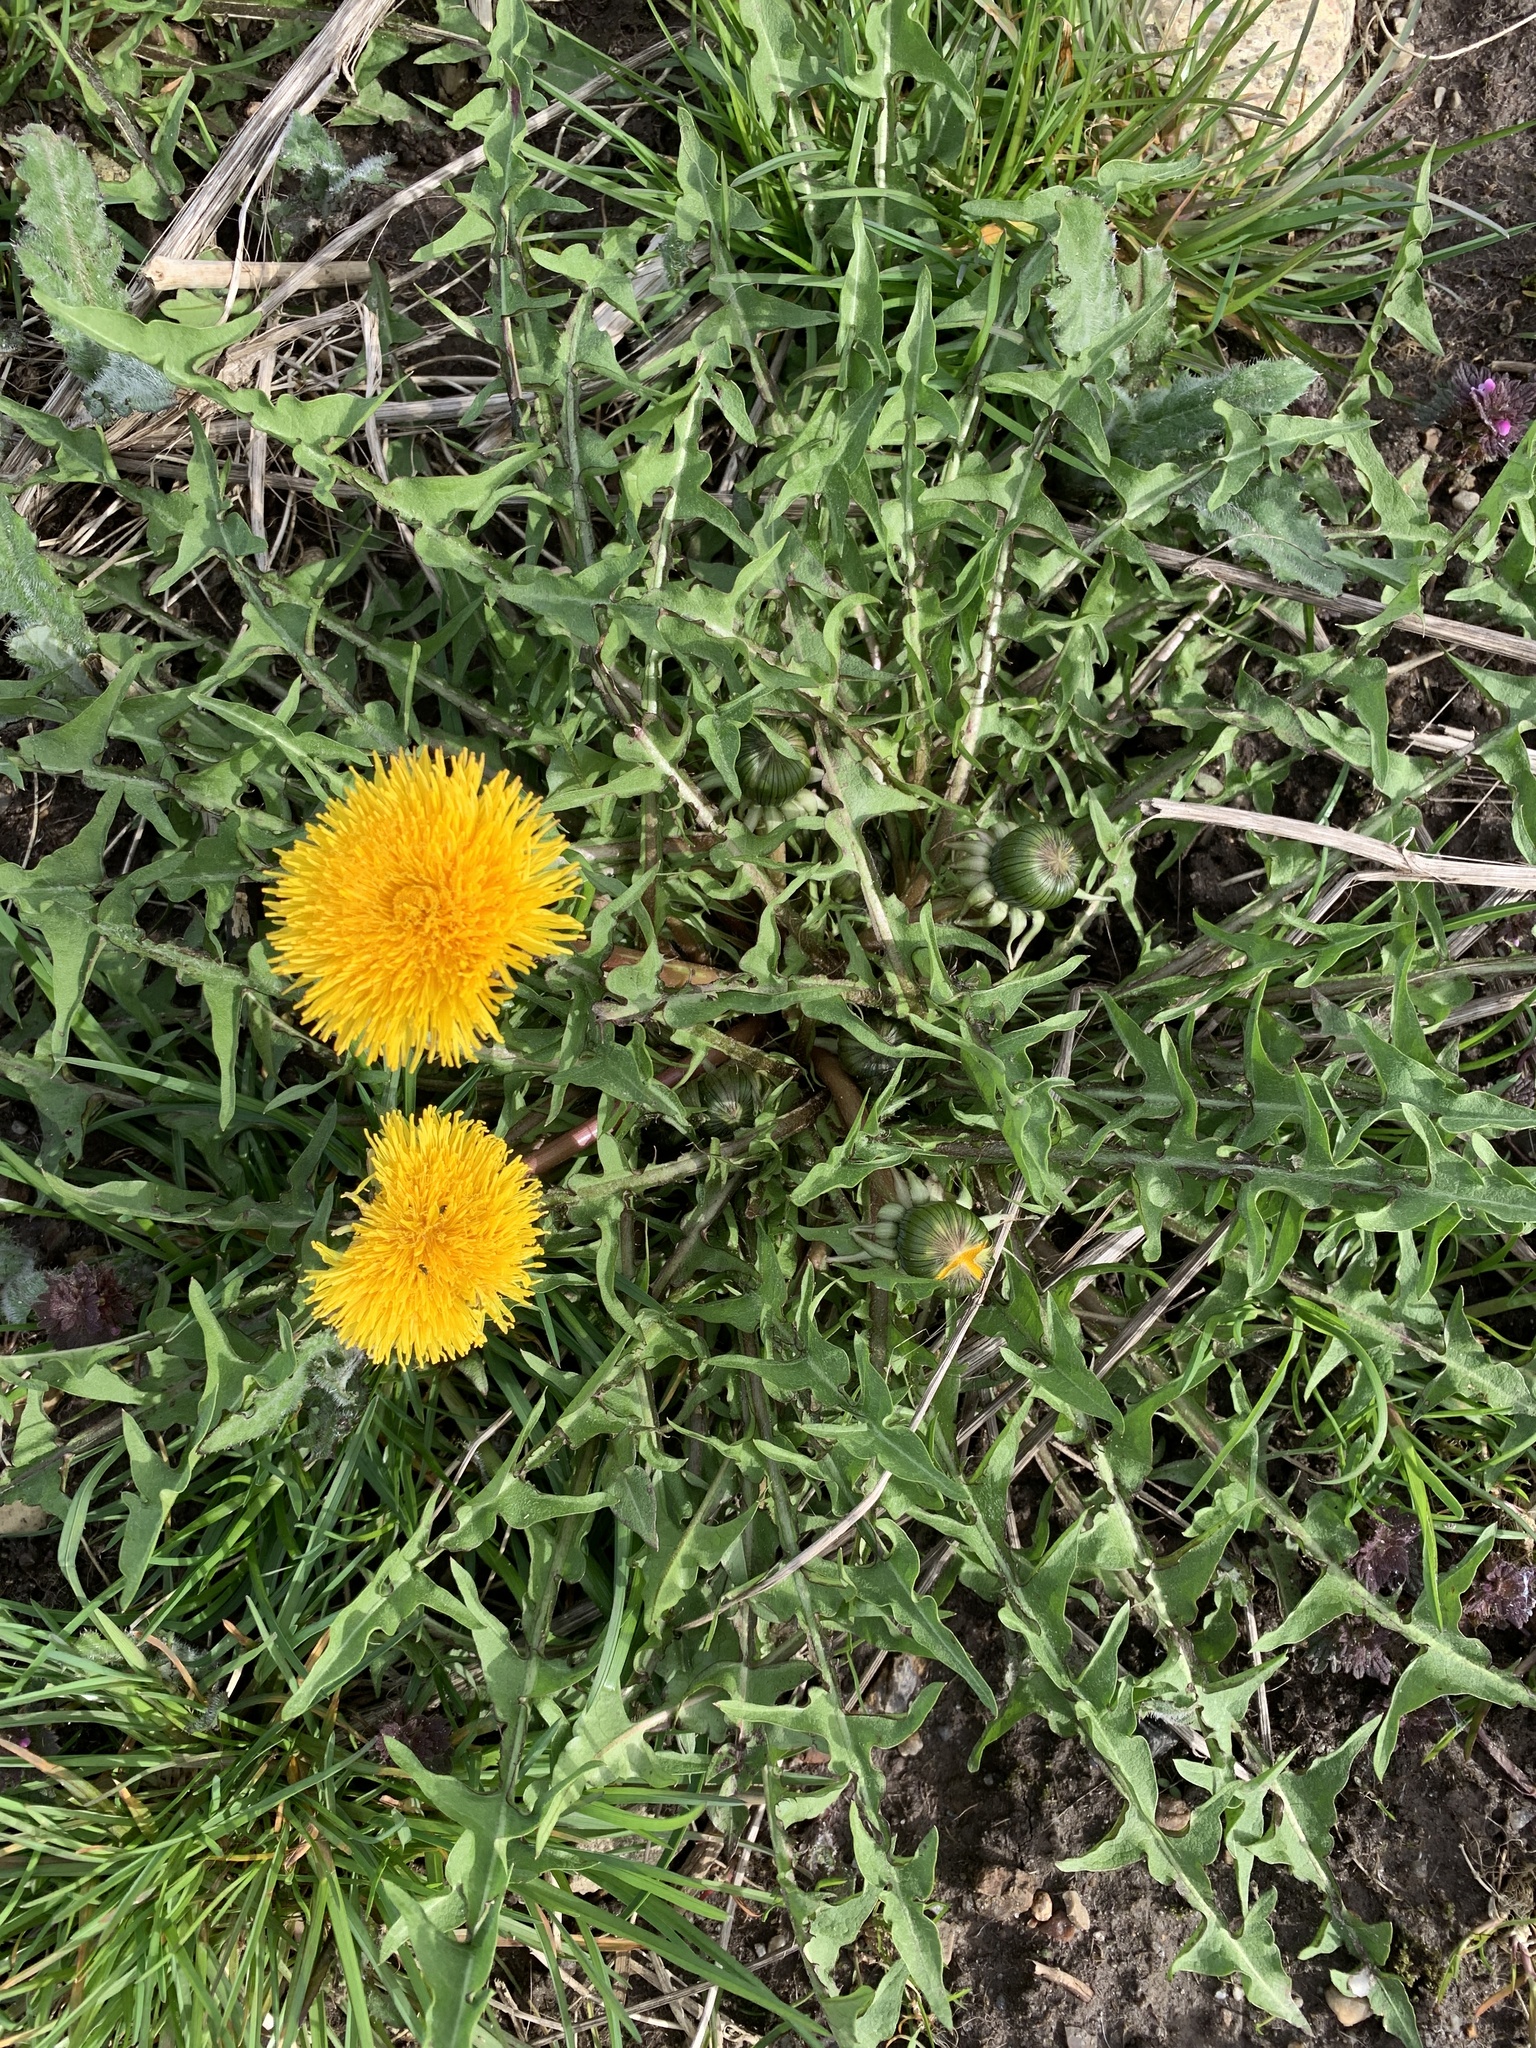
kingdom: Plantae
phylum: Tracheophyta
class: Magnoliopsida
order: Asterales
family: Asteraceae
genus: Taraxacum
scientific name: Taraxacum officinale
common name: Common dandelion
